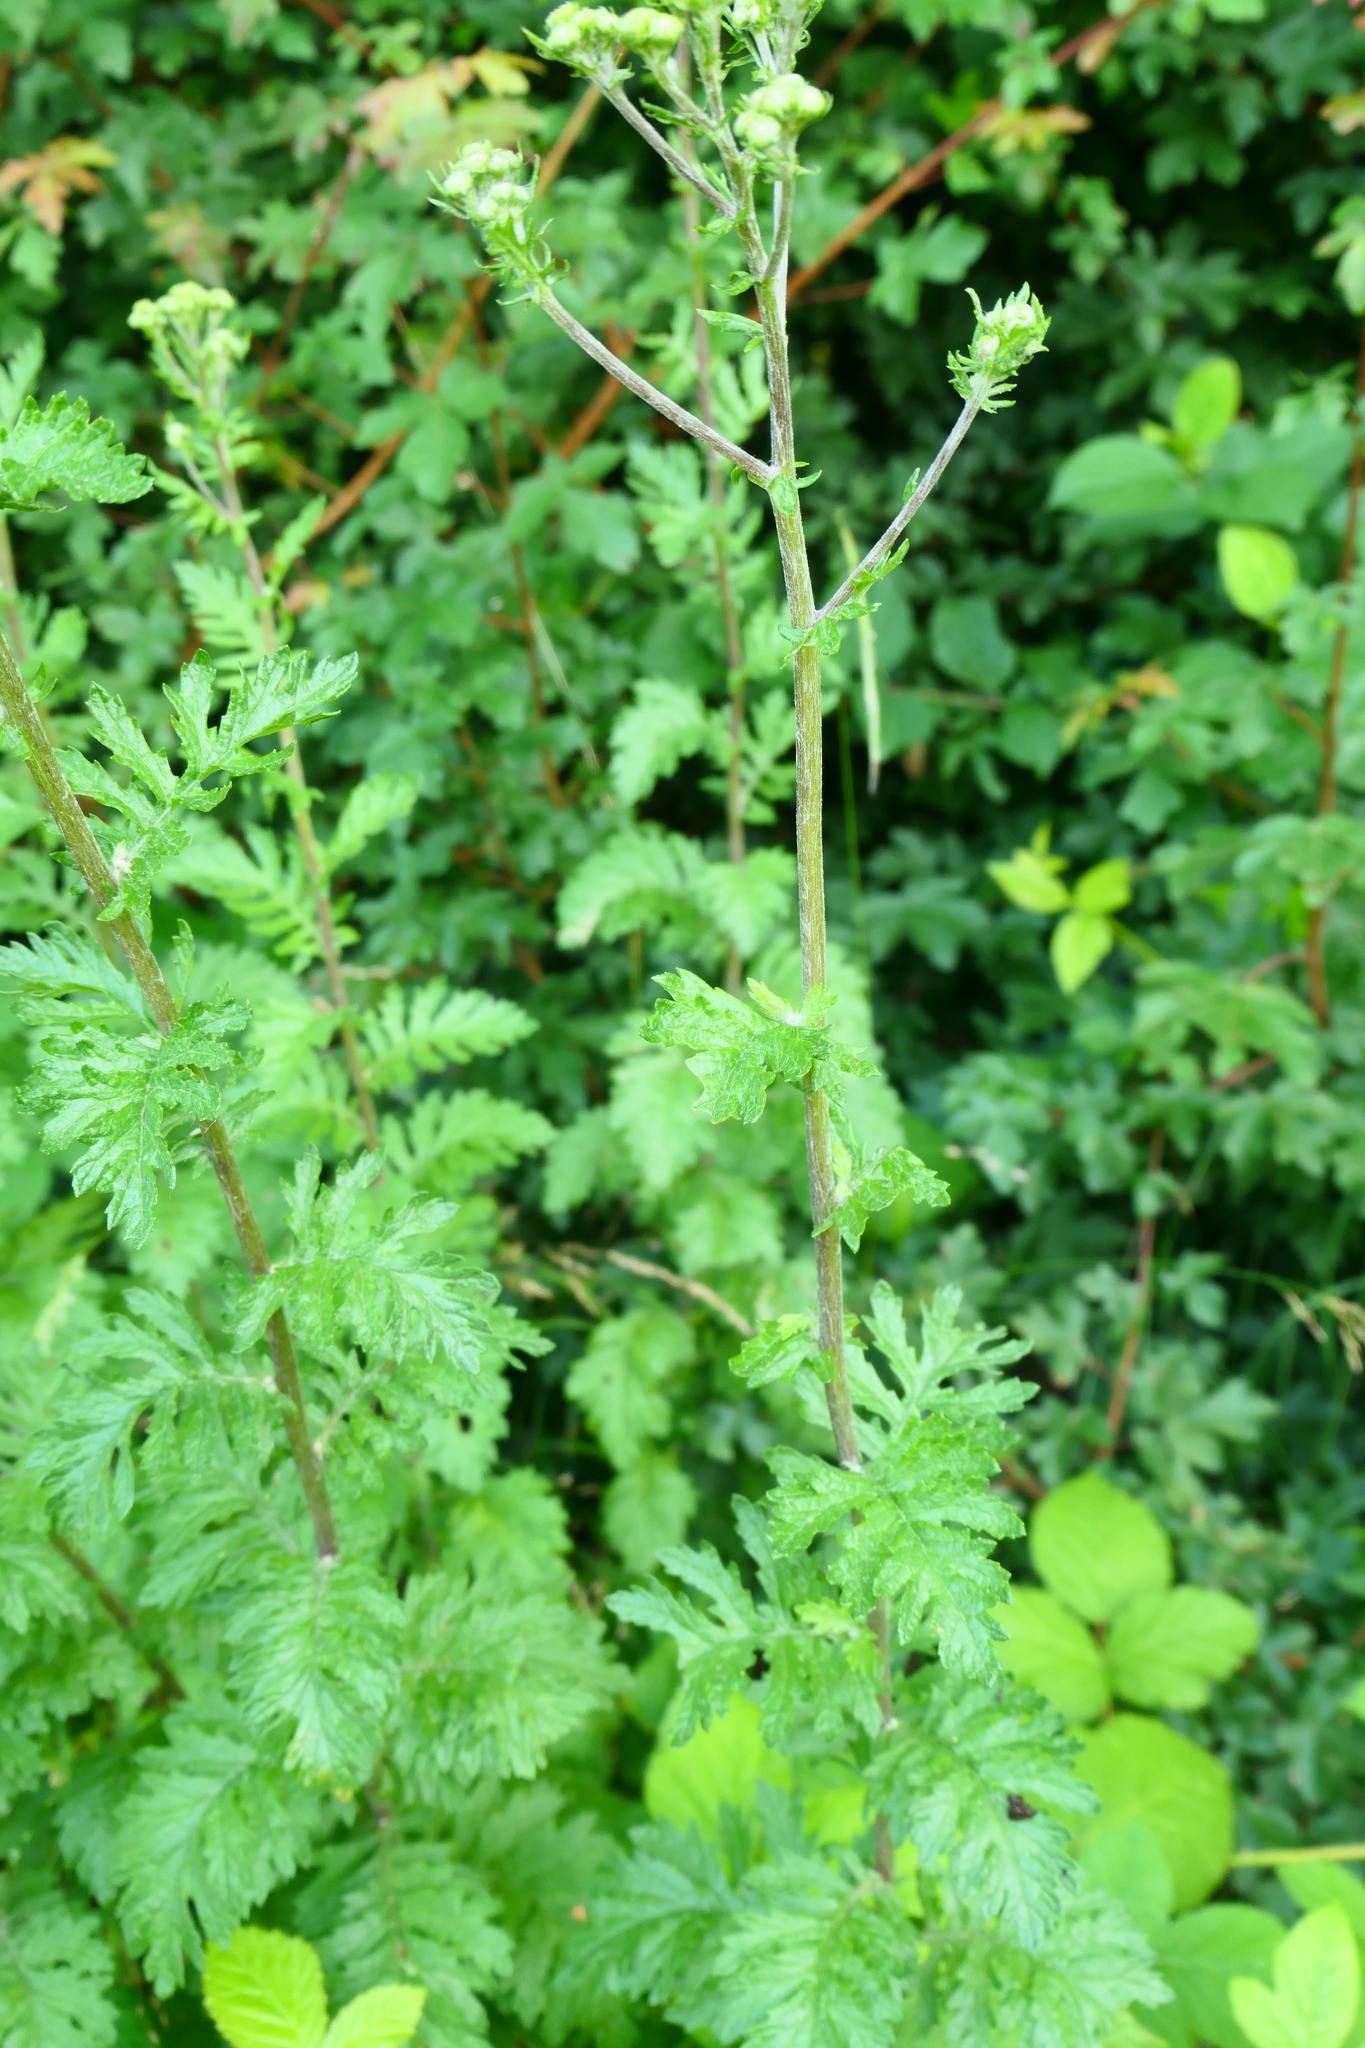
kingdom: Plantae
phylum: Tracheophyta
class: Magnoliopsida
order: Asterales
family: Asteraceae
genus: Tanacetum
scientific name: Tanacetum vulgare
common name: Common tansy
